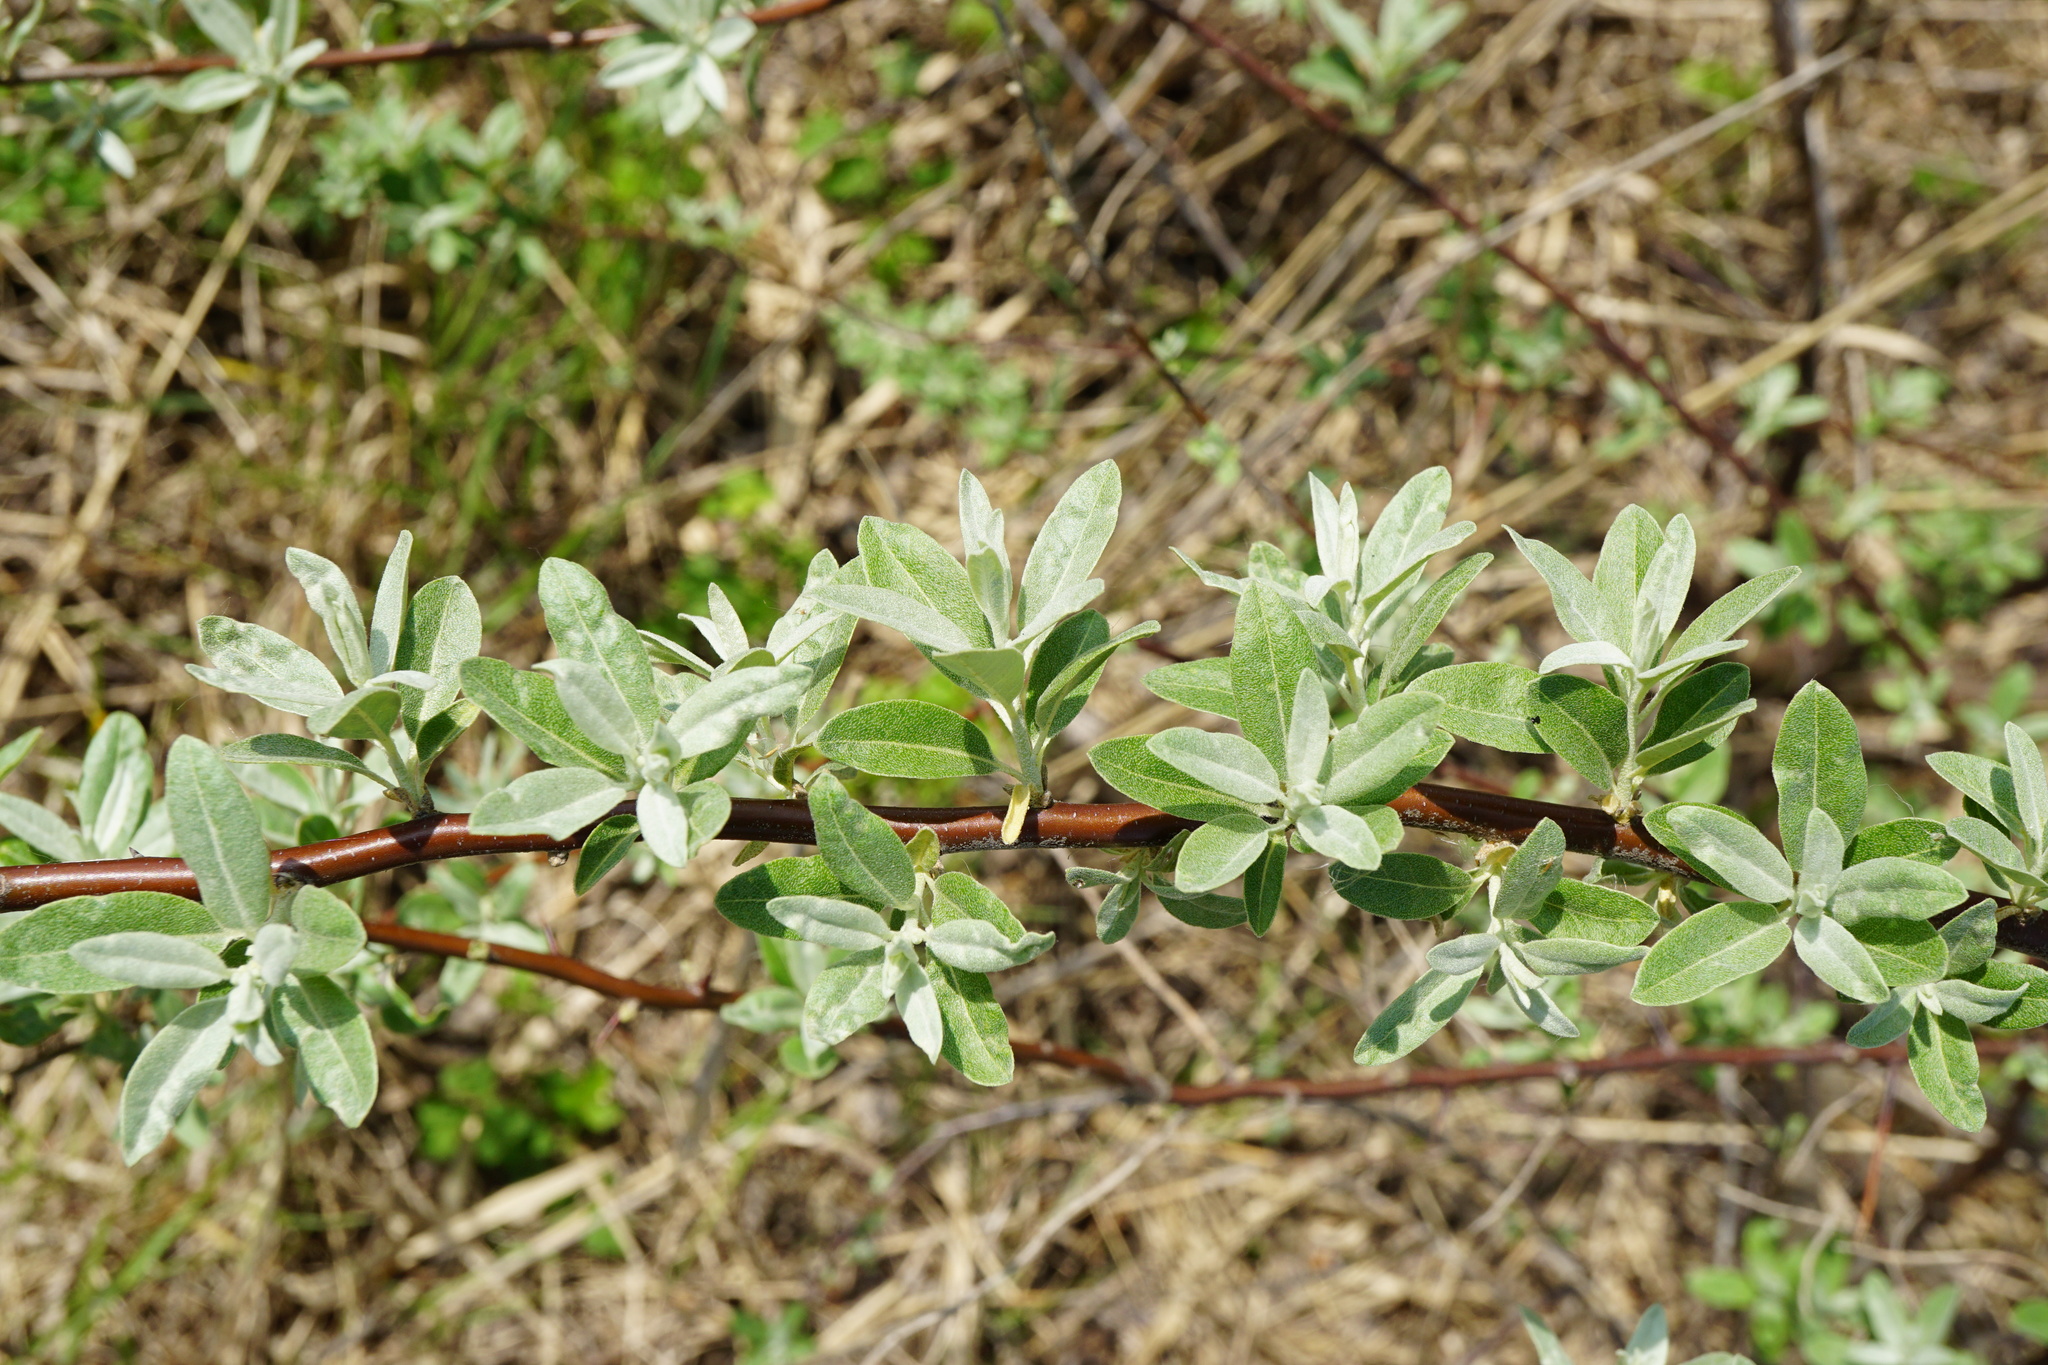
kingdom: Plantae
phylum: Tracheophyta
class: Magnoliopsida
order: Rosales
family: Elaeagnaceae
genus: Elaeagnus
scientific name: Elaeagnus angustifolia
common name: Russian olive
